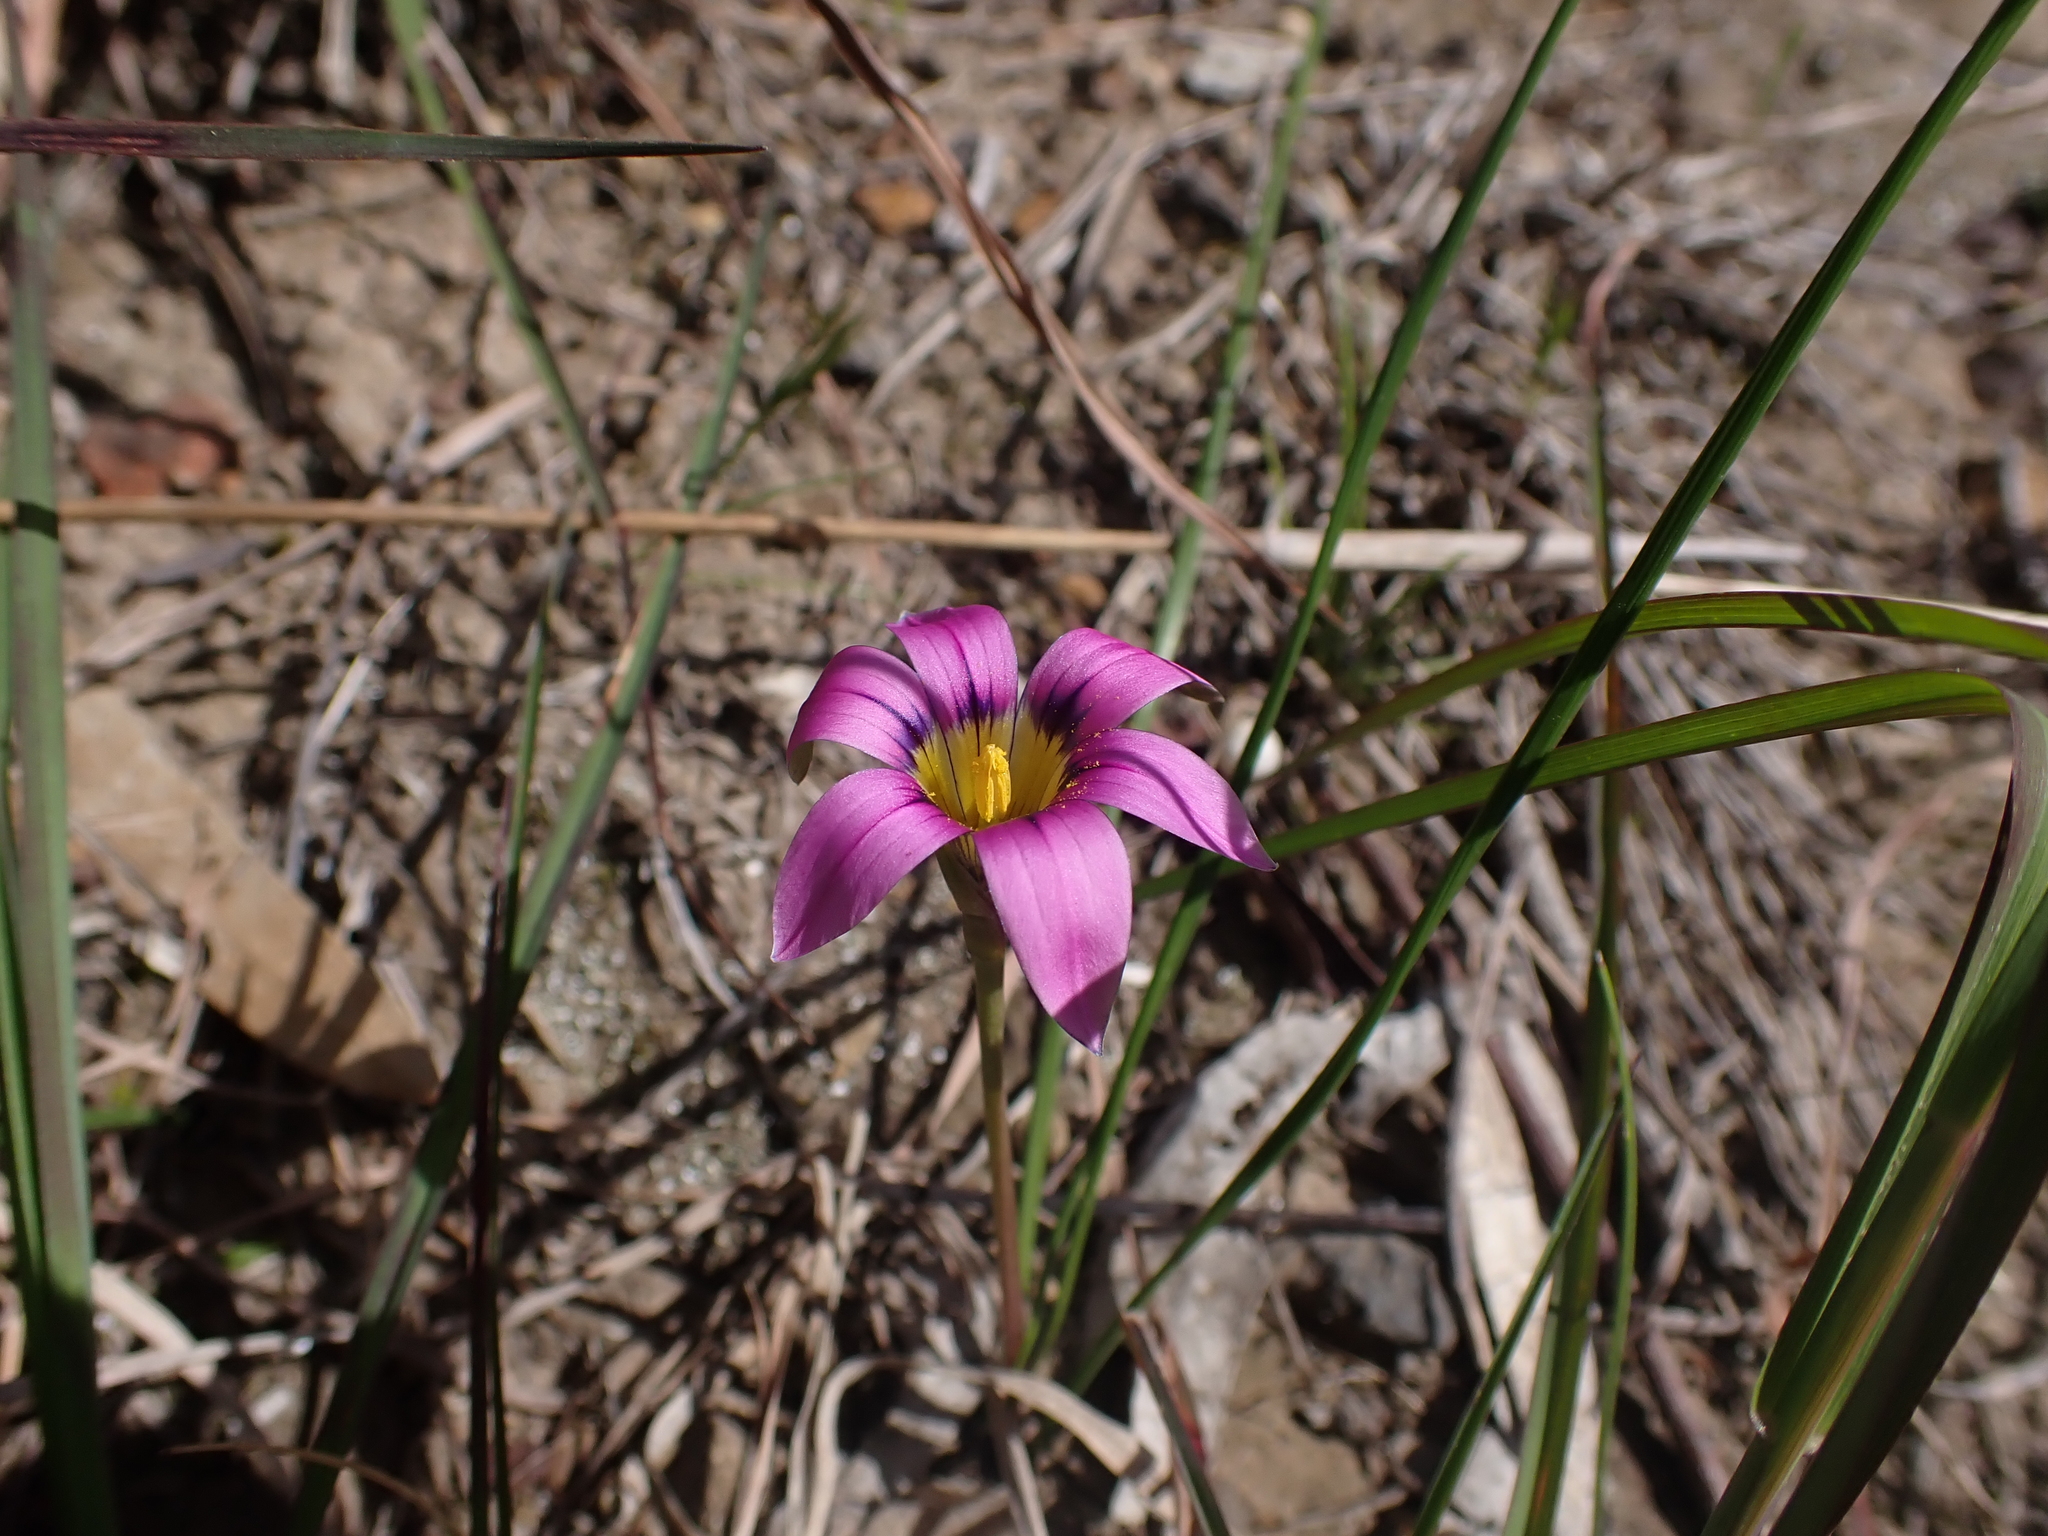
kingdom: Plantae
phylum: Tracheophyta
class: Liliopsida
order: Asparagales
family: Iridaceae
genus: Romulea
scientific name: Romulea rosea
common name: Oniongrass
